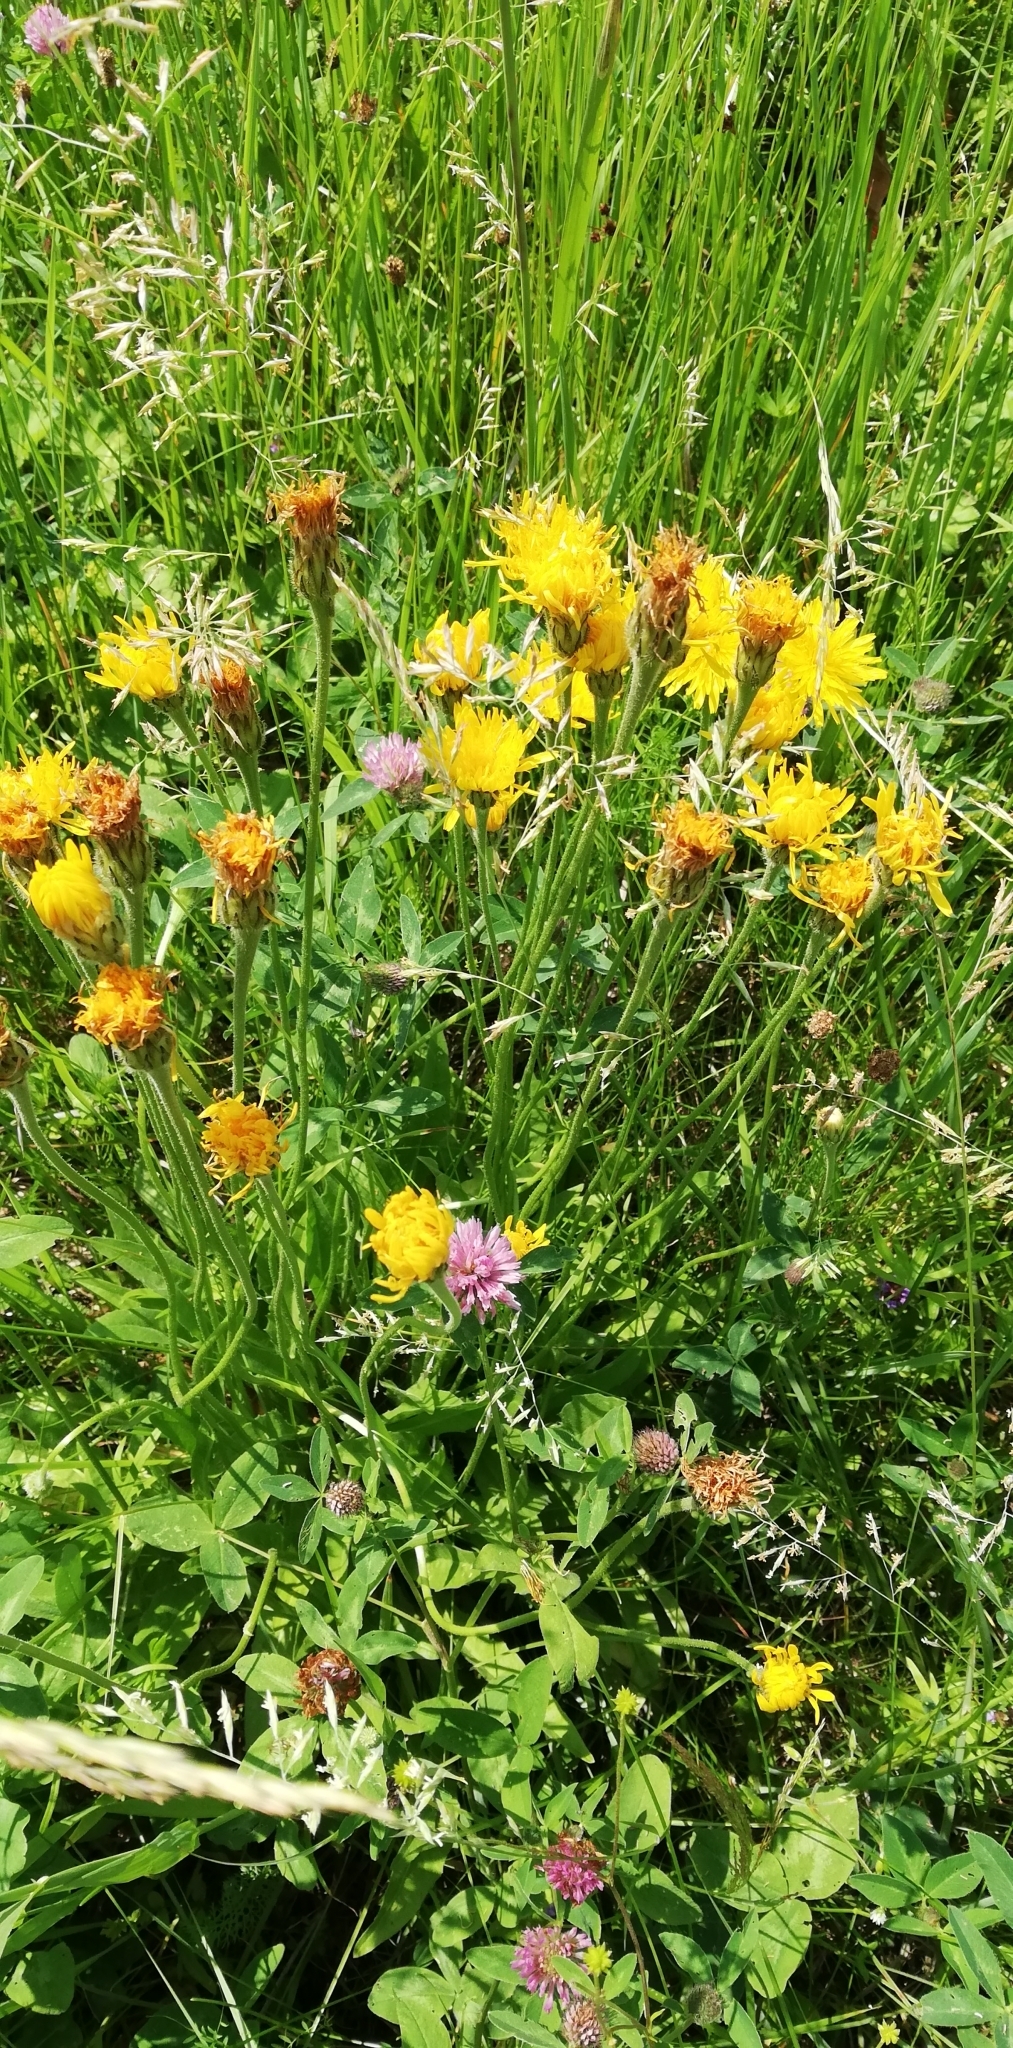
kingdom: Plantae
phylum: Tracheophyta
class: Magnoliopsida
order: Asterales
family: Asteraceae
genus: Leontodon
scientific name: Leontodon hispidus
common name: Rough hawkbit
